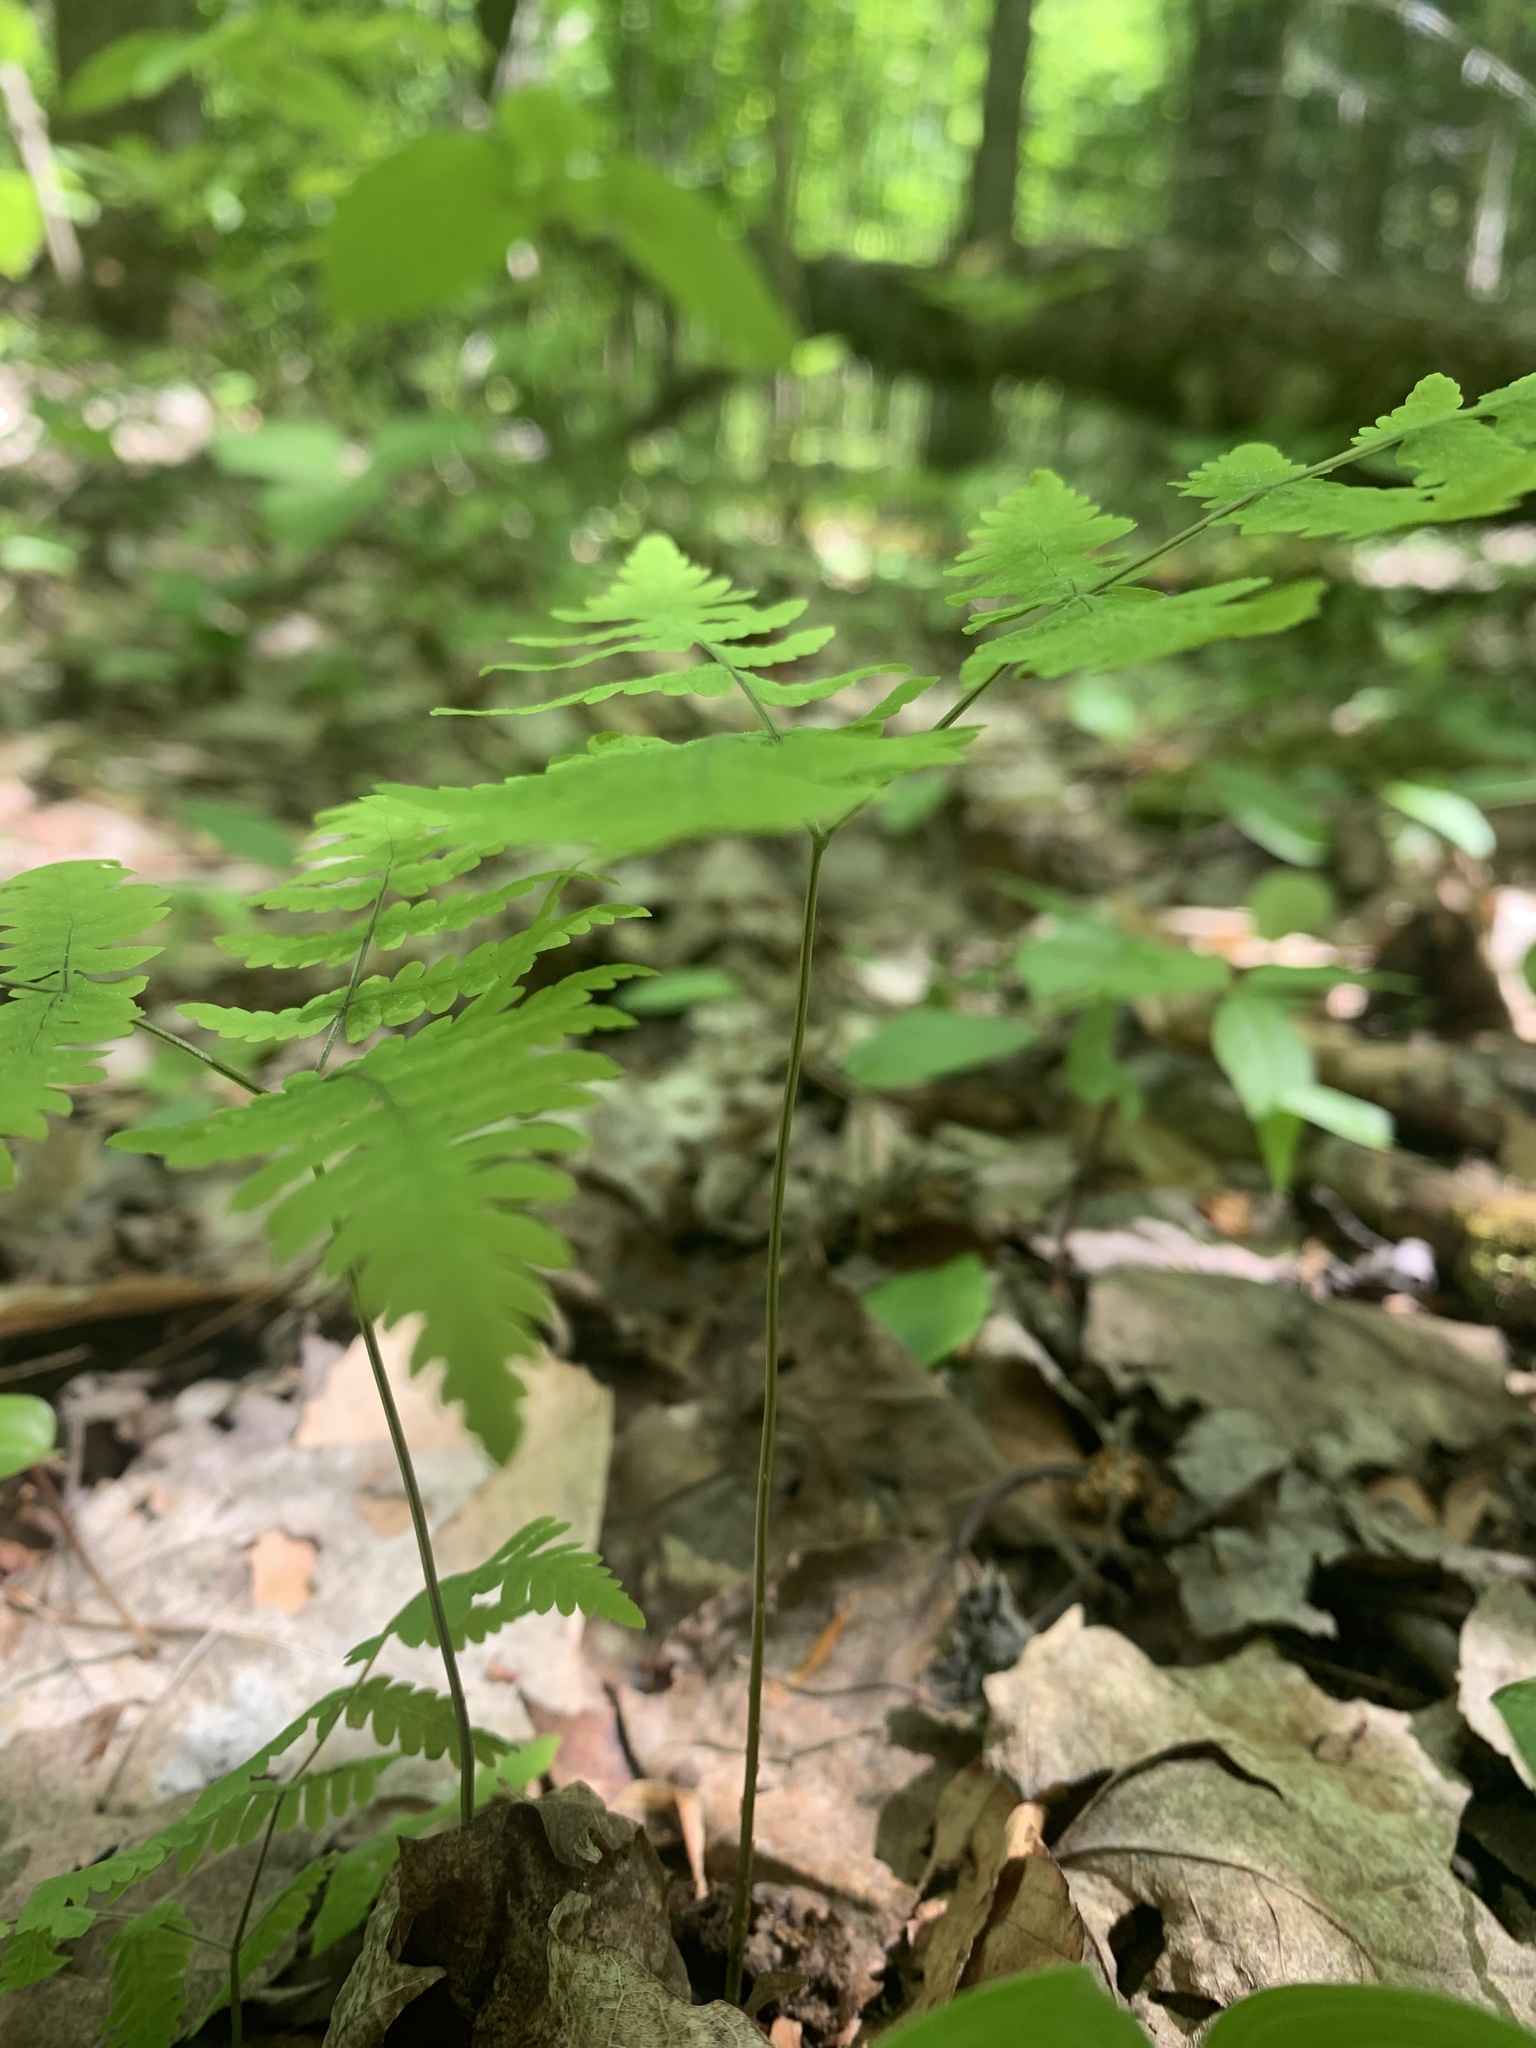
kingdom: Plantae
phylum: Tracheophyta
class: Polypodiopsida
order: Polypodiales
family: Cystopteridaceae
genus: Gymnocarpium
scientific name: Gymnocarpium dryopteris
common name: Oak fern
